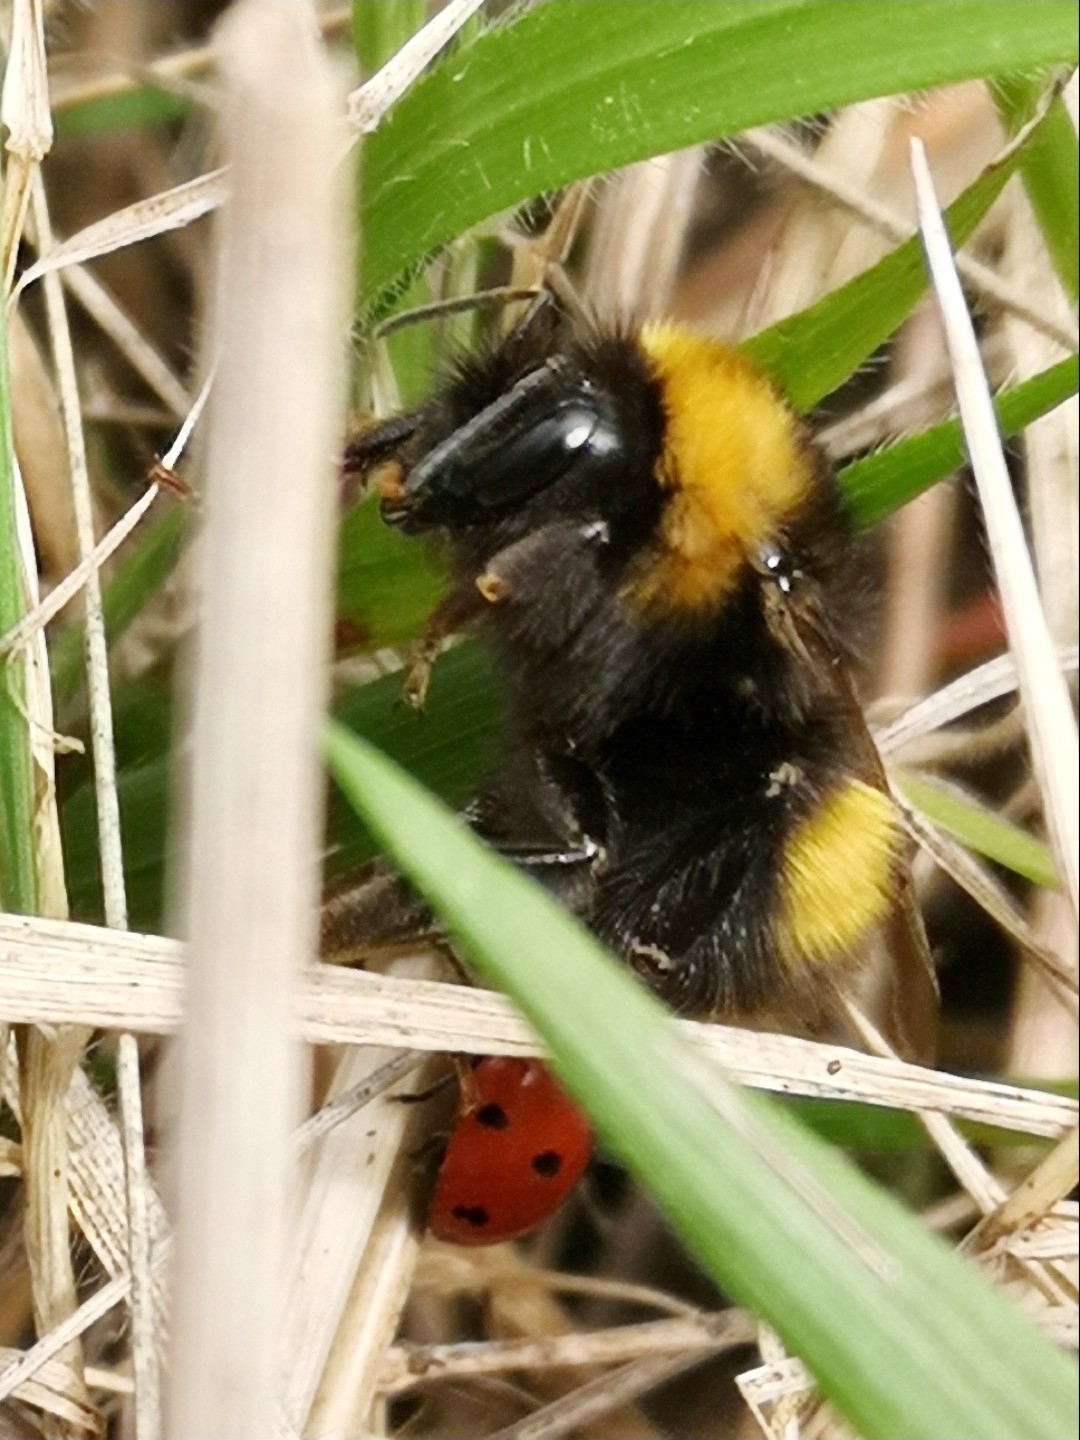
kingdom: Animalia
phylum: Arthropoda
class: Insecta
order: Hymenoptera
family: Apidae
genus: Bombus
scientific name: Bombus haematurus
